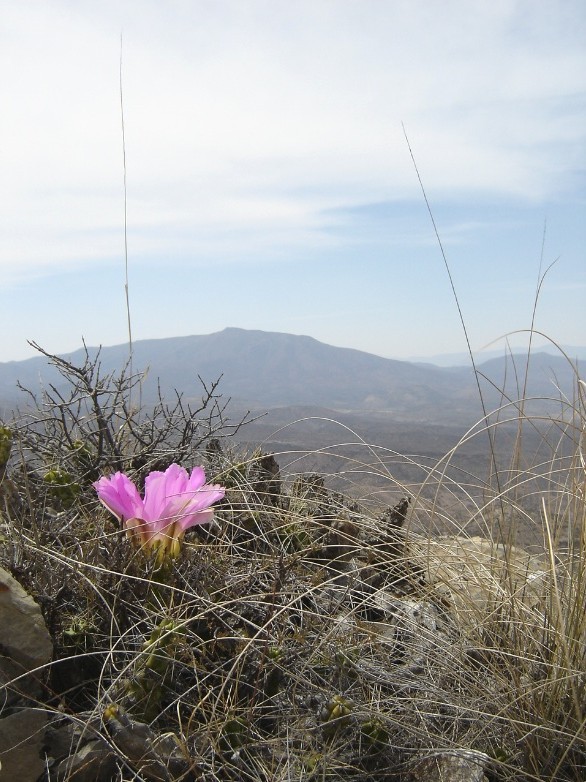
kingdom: Plantae
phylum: Tracheophyta
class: Magnoliopsida
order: Caryophyllales
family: Cactaceae
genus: Echinocereus
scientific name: Echinocereus pentalophus
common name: Ladyfinger cactus
